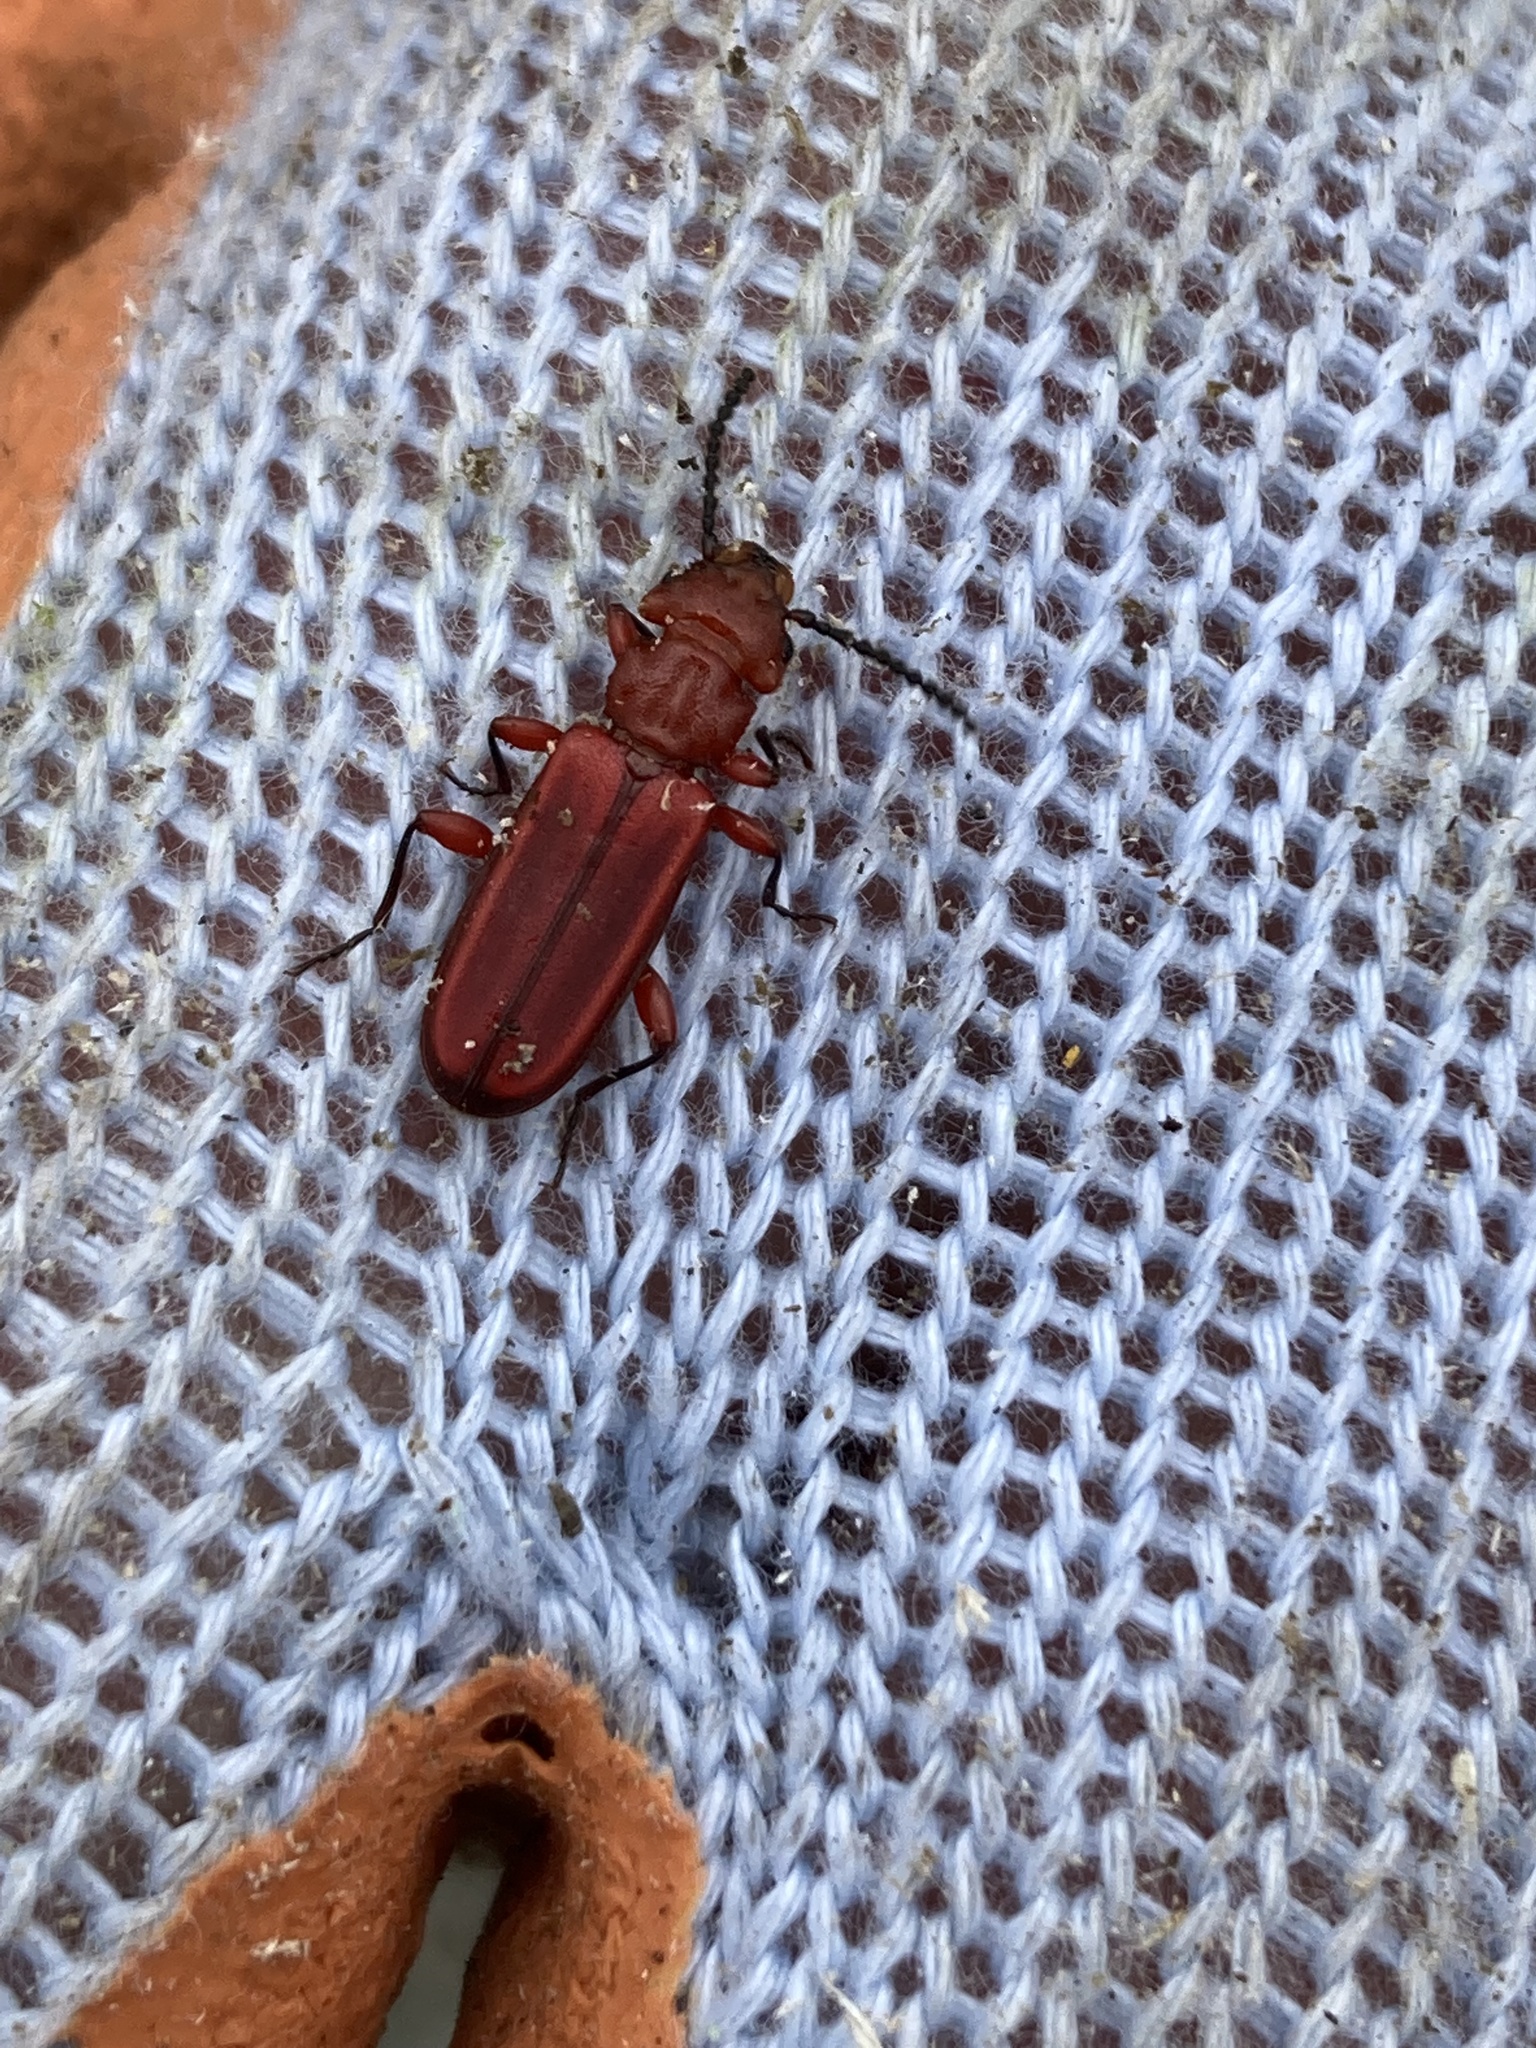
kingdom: Animalia
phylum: Arthropoda
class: Insecta
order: Coleoptera
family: Cucujidae
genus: Cucujus
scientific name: Cucujus clavipes
